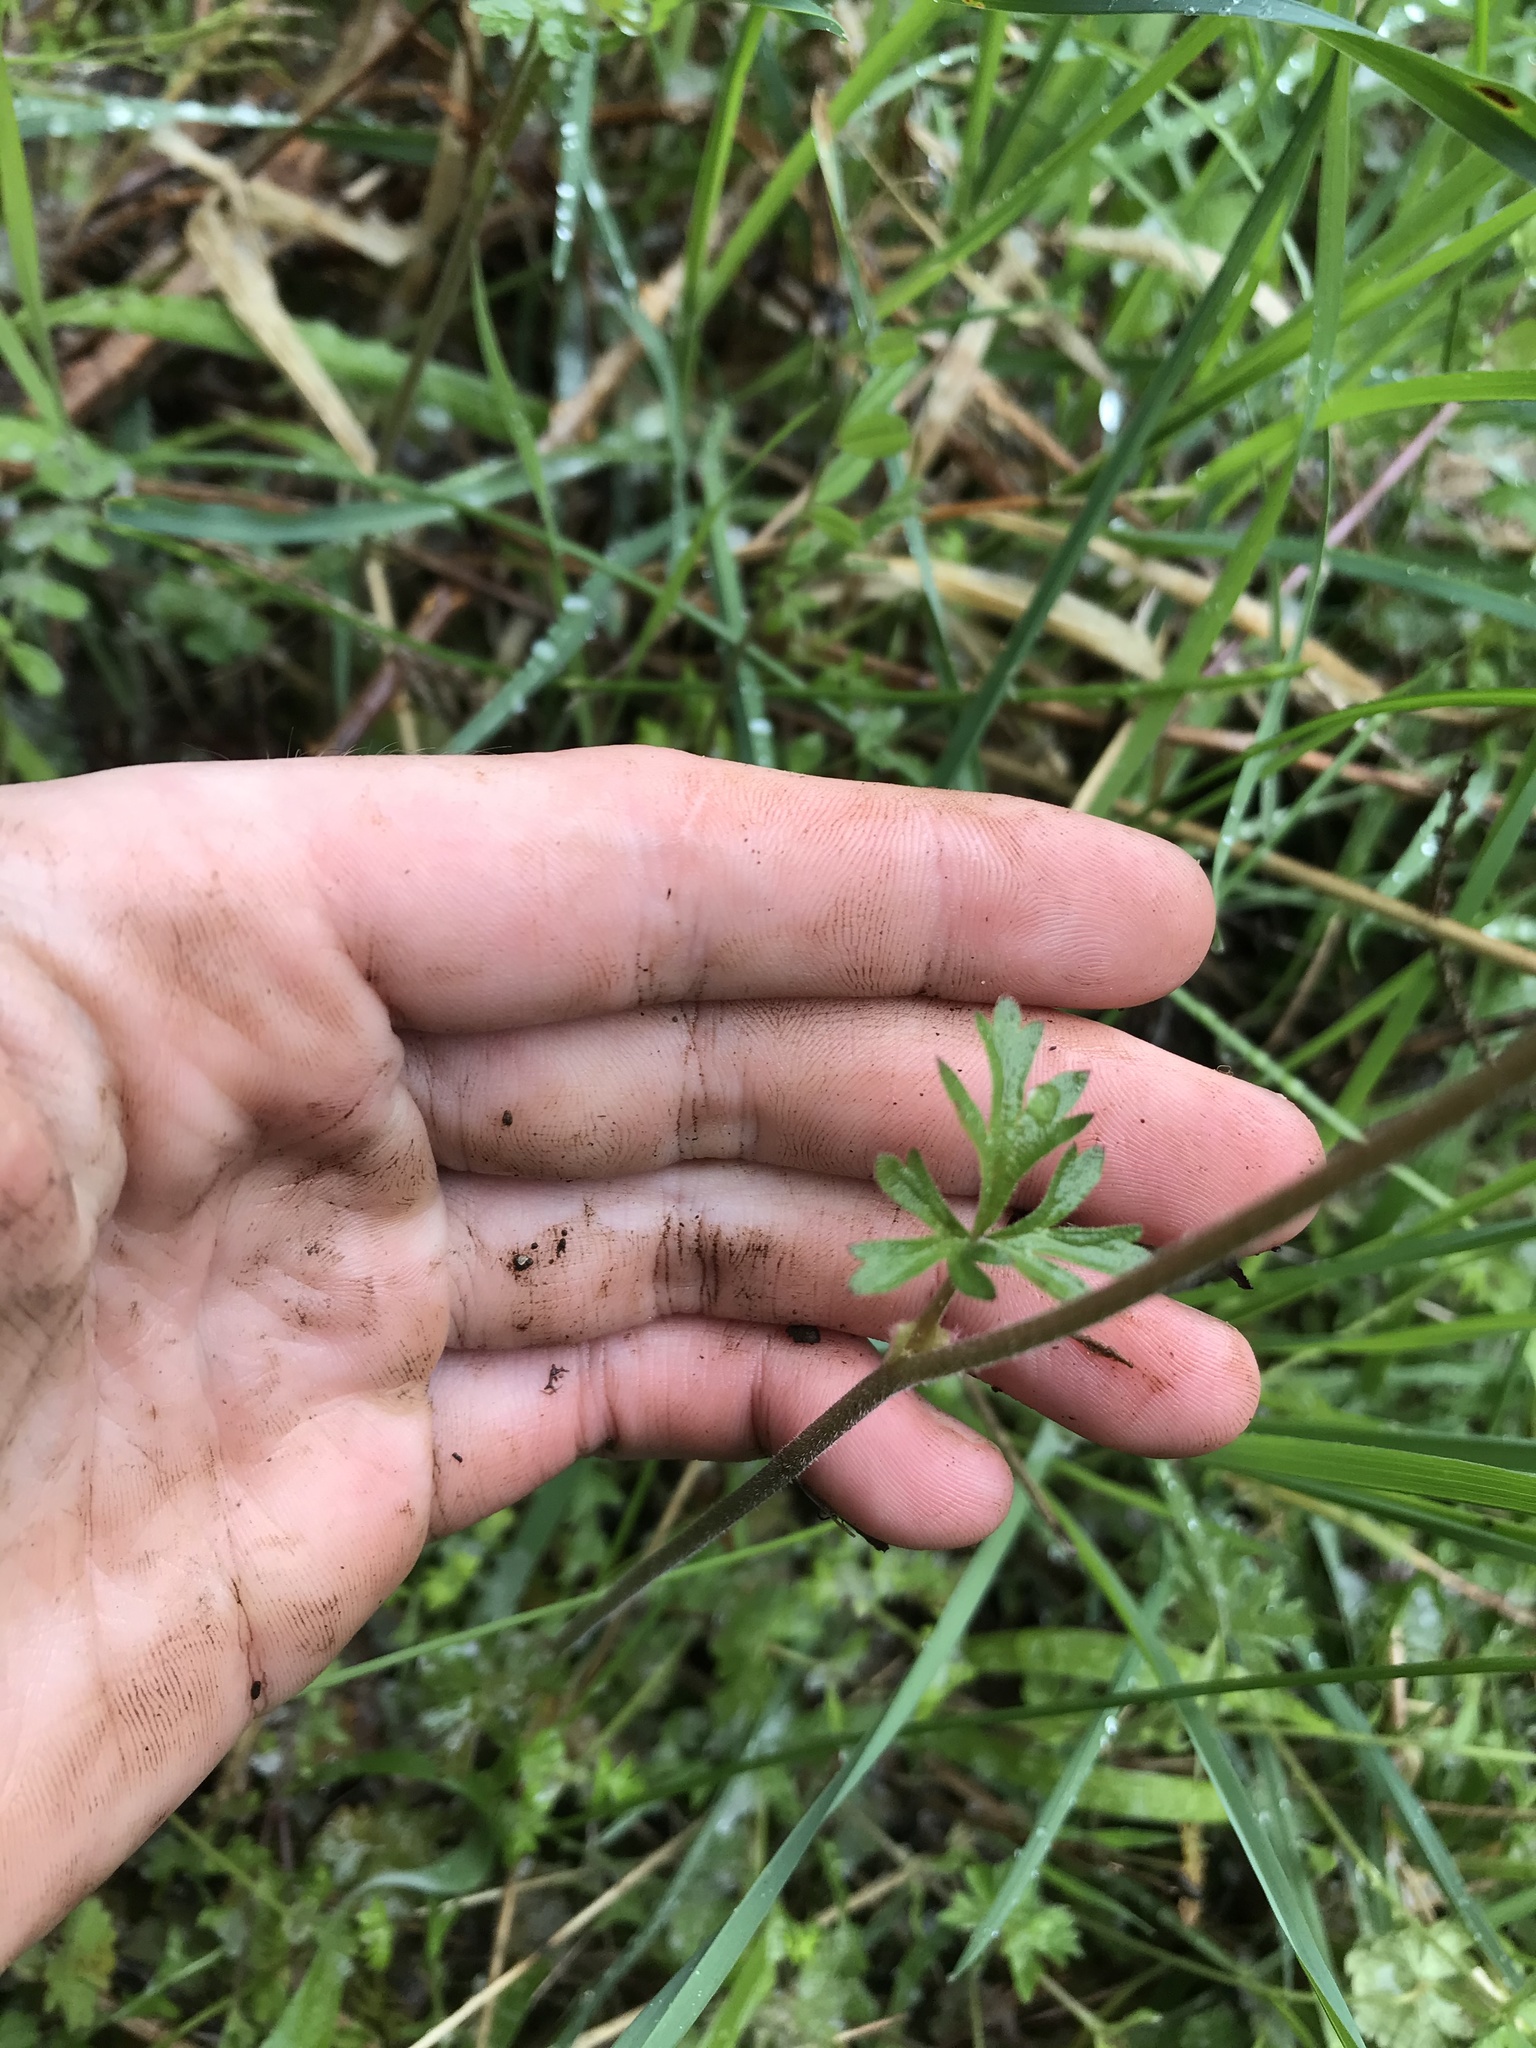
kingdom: Plantae
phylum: Tracheophyta
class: Magnoliopsida
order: Saxifragales
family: Saxifragaceae
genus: Lithophragma
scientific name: Lithophragma parviflorum
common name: Small-flowered fringe-cup
